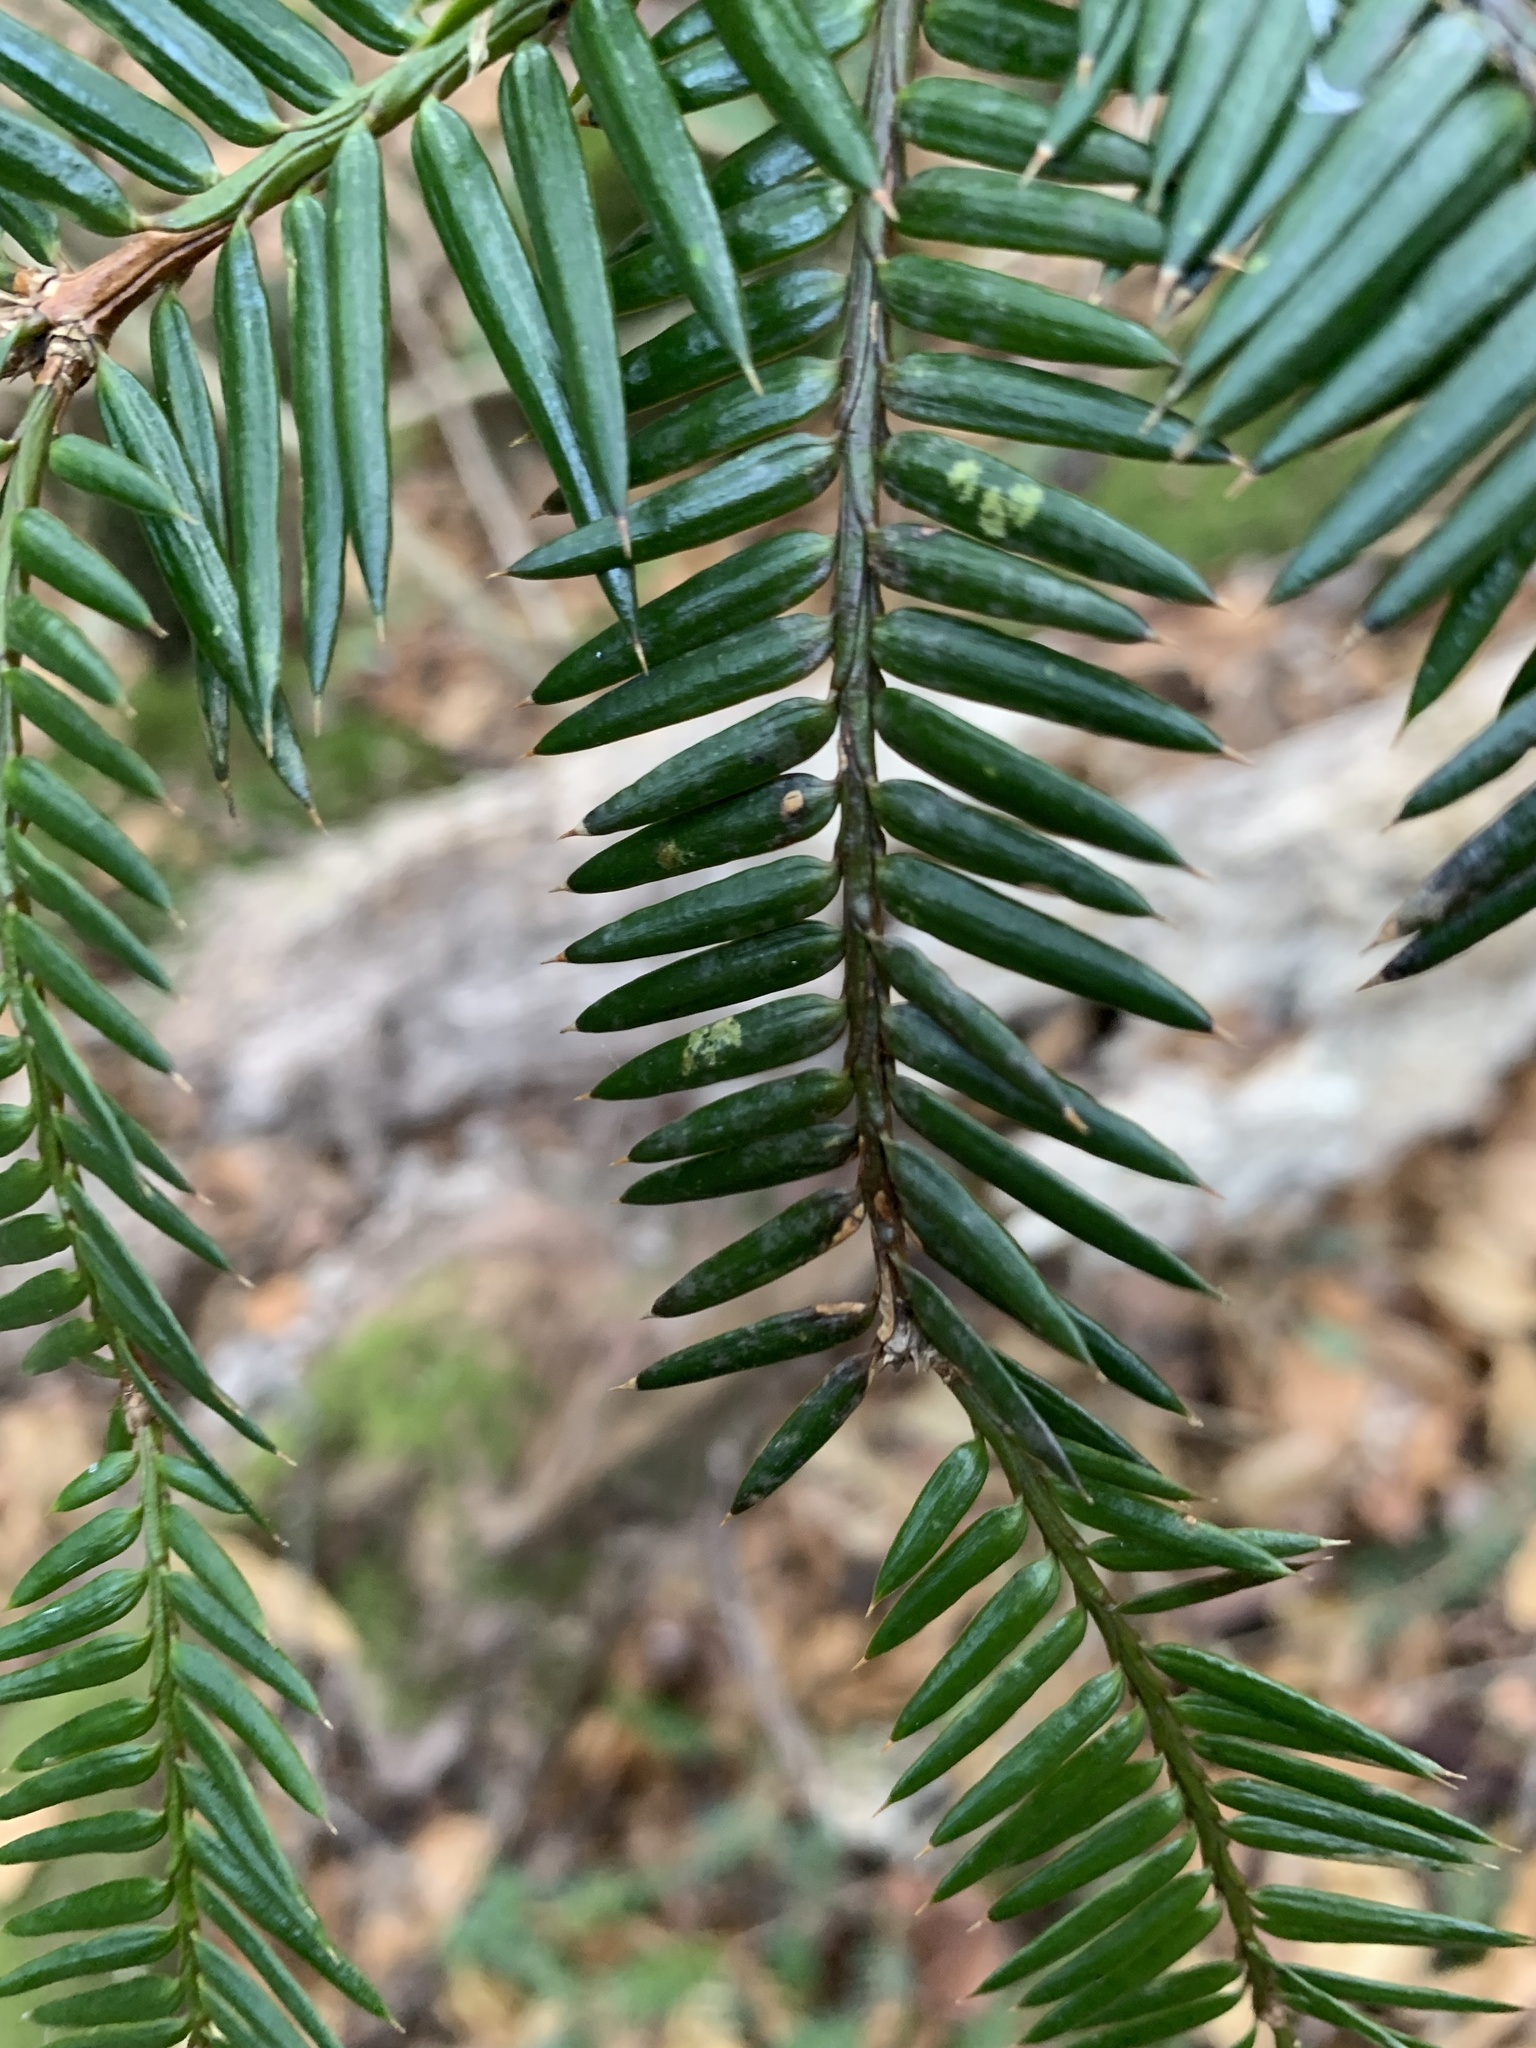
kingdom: Plantae
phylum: Tracheophyta
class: Pinopsida
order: Pinales
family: Taxaceae
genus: Torreya
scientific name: Torreya nucifera
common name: Japanese nutmeg tree
